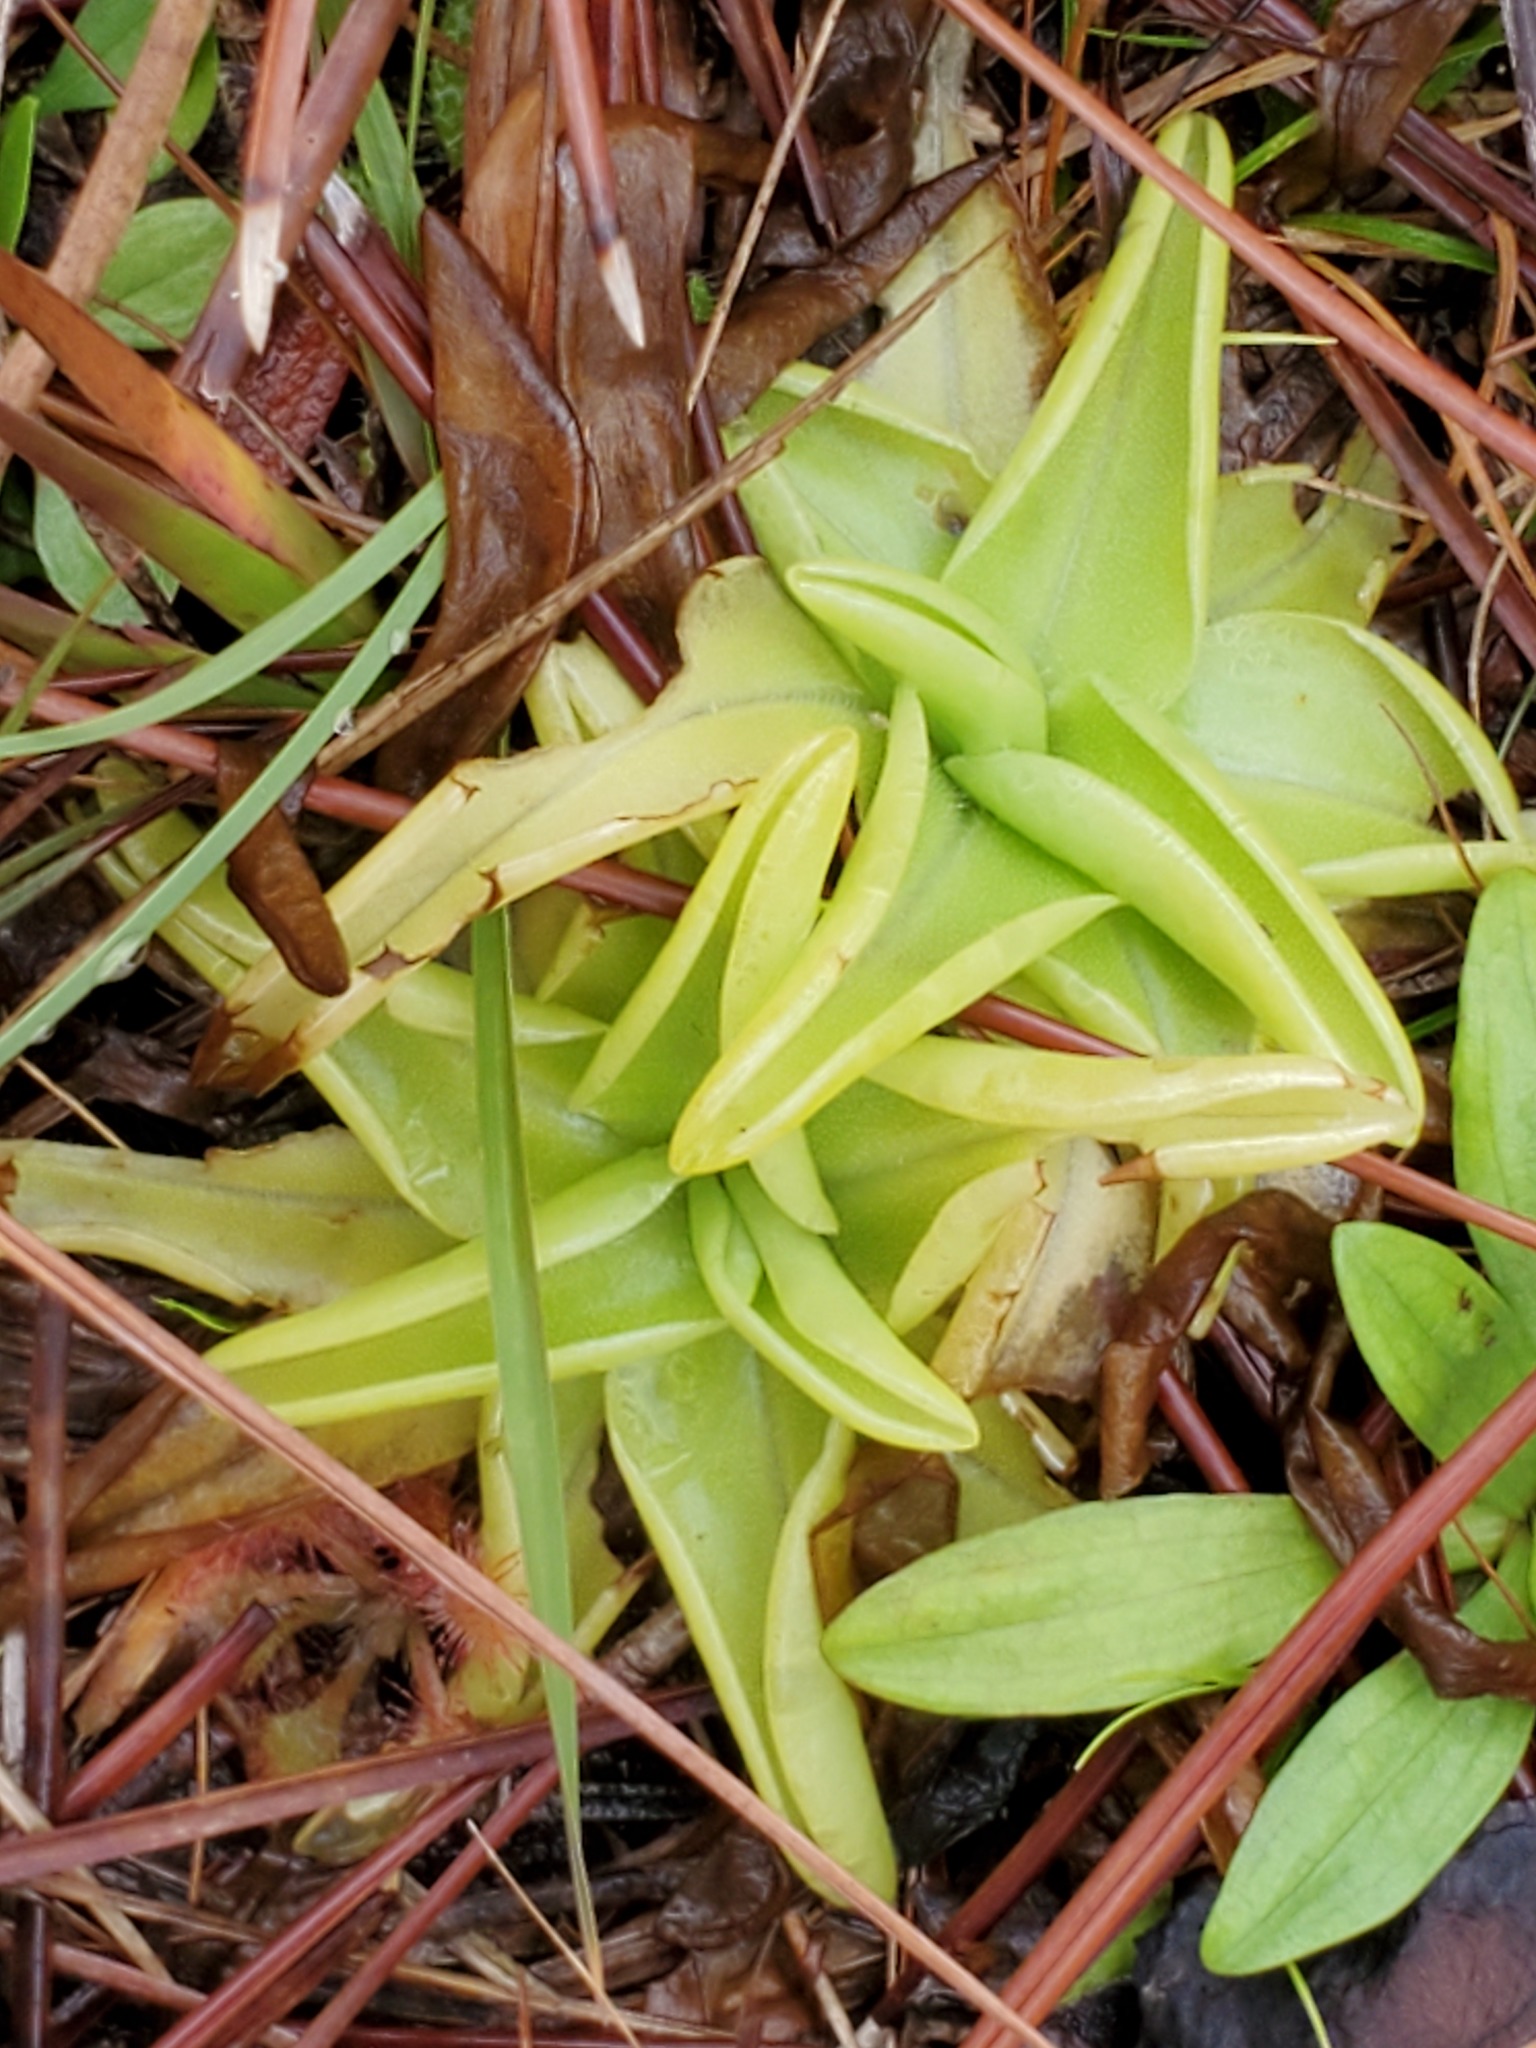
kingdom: Plantae
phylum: Tracheophyta
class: Magnoliopsida
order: Lamiales
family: Lentibulariaceae
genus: Pinguicula
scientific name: Pinguicula lutea
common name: Yellow butterwort
